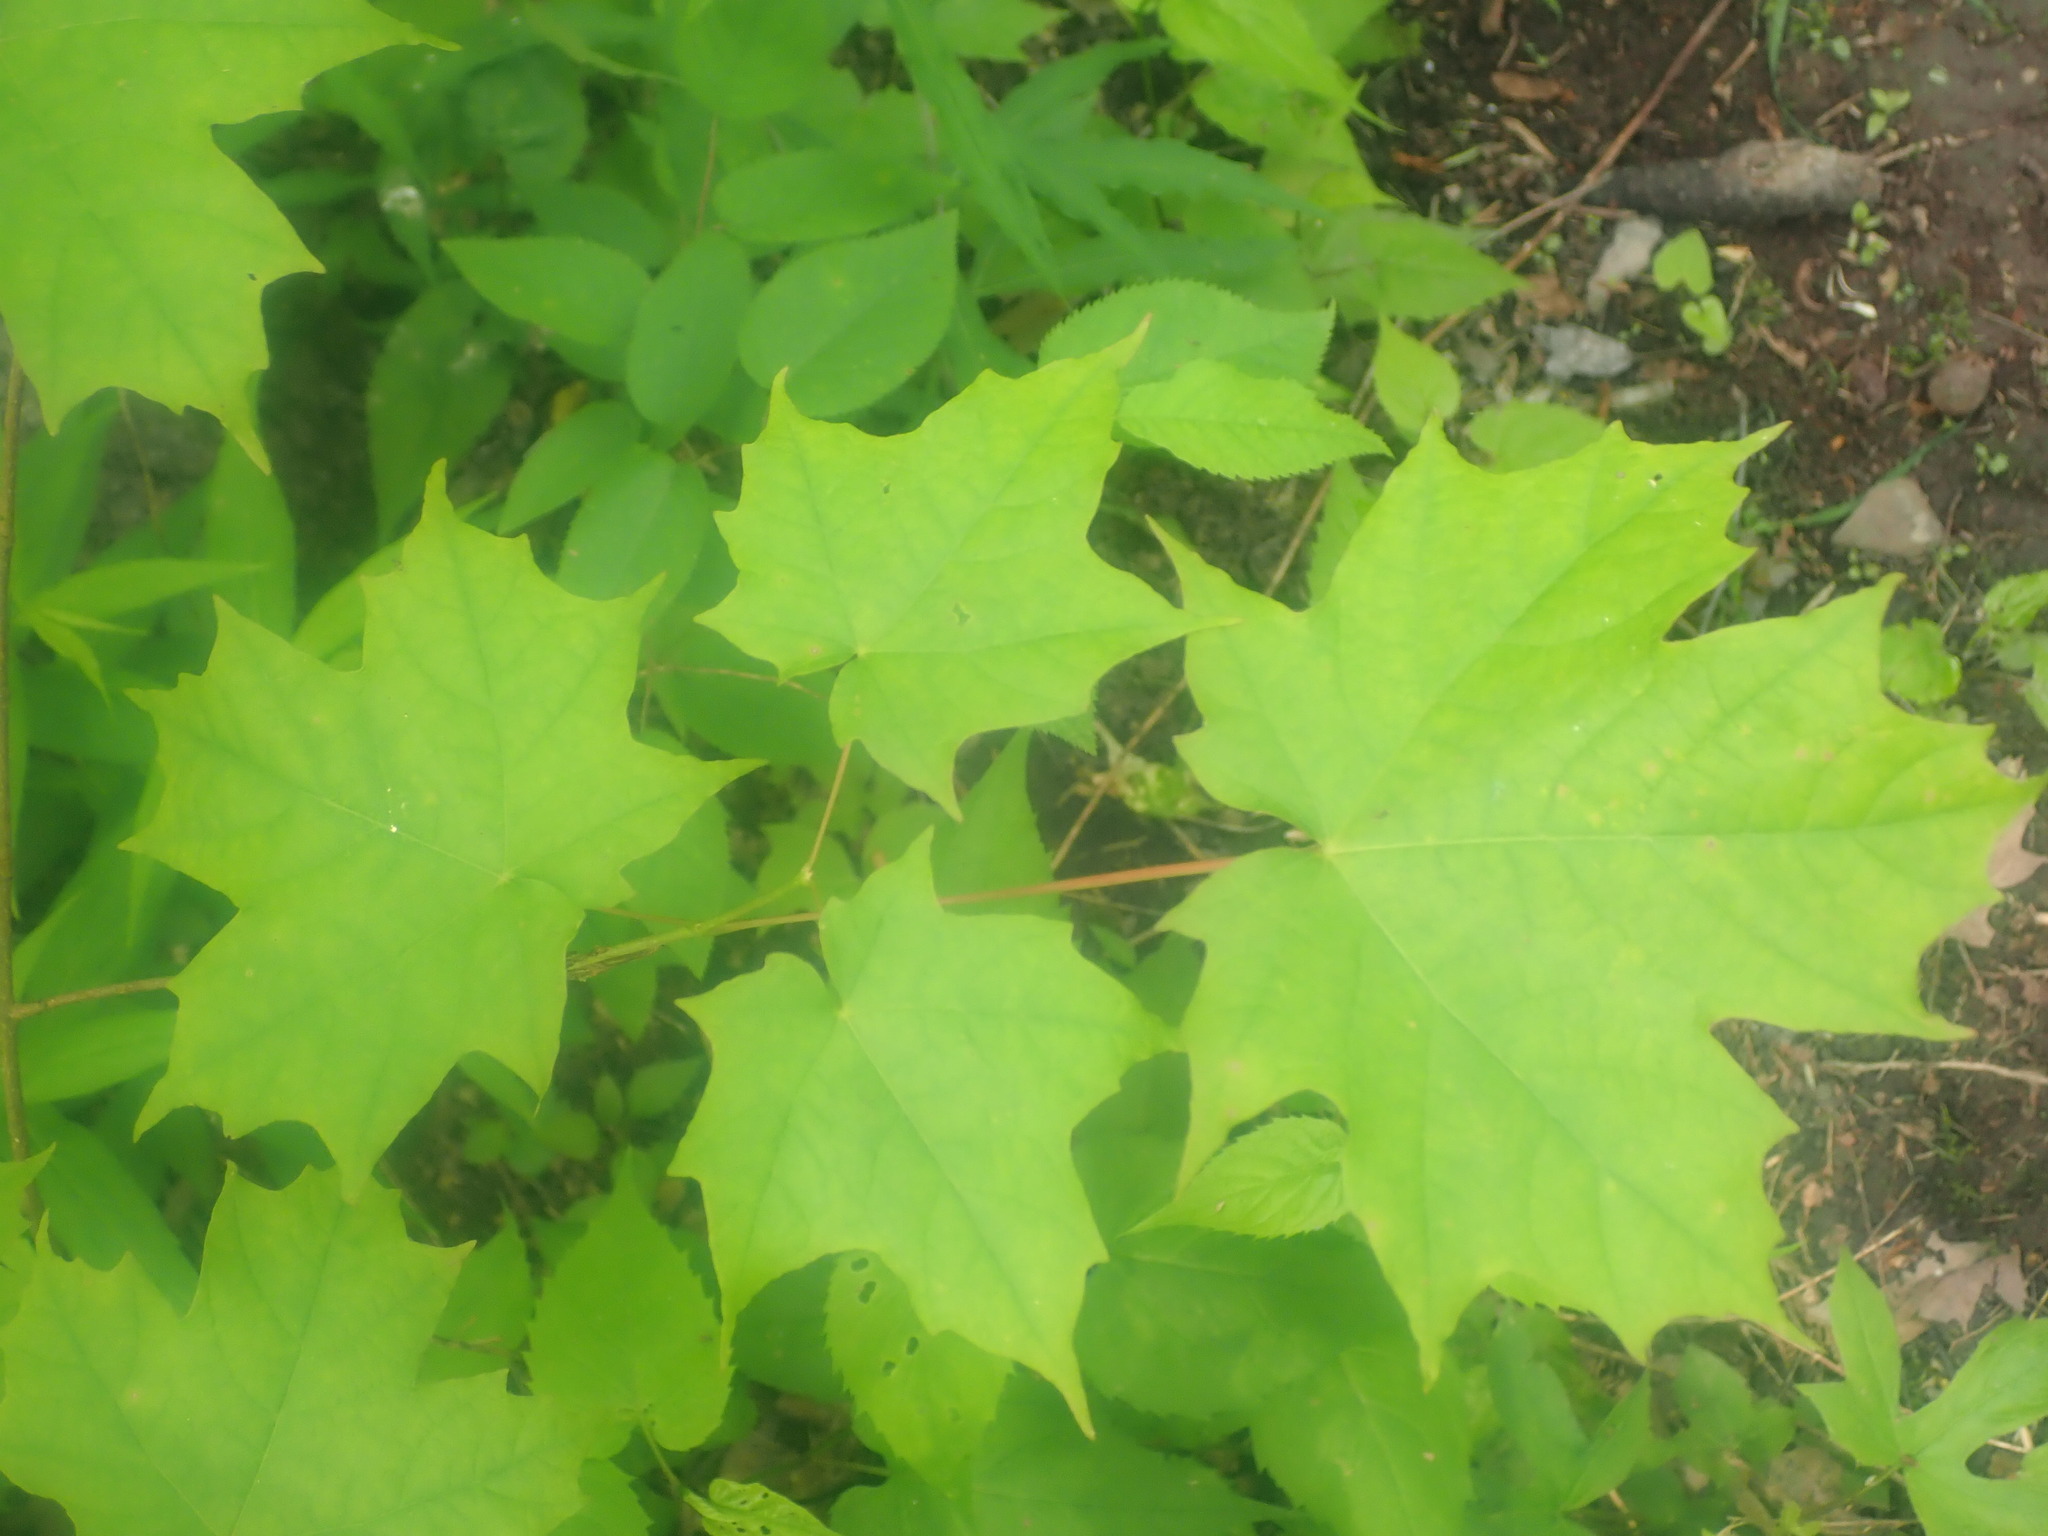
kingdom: Plantae
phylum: Tracheophyta
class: Magnoliopsida
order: Sapindales
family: Sapindaceae
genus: Acer
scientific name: Acer saccharum
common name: Sugar maple
